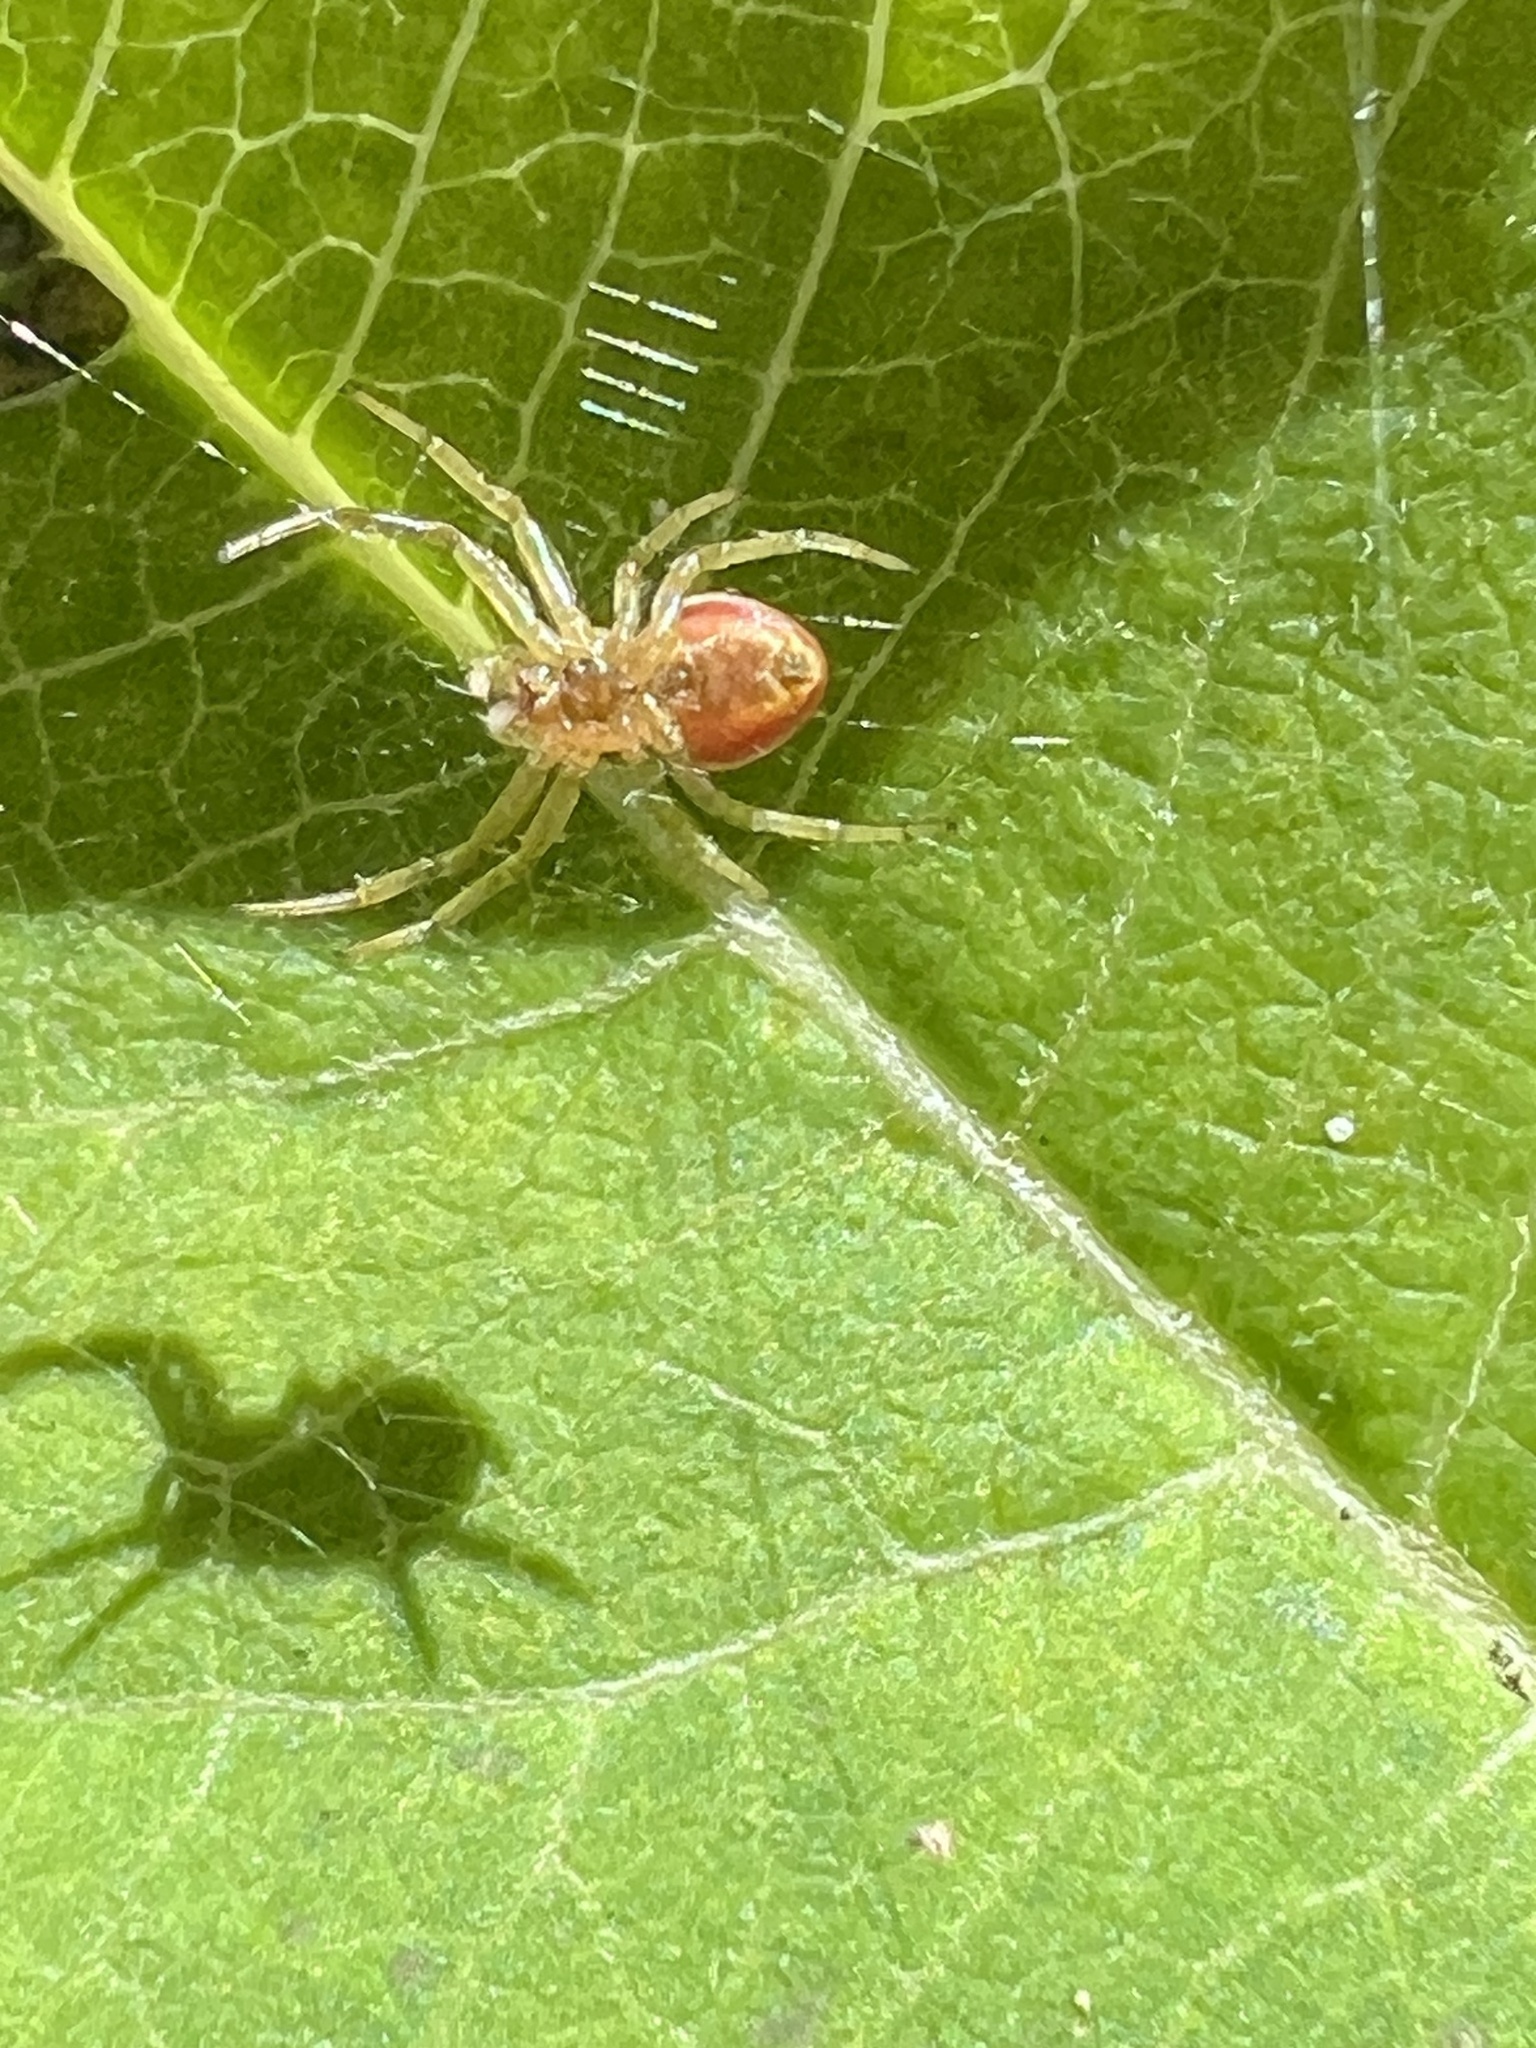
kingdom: Animalia
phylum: Arthropoda
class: Arachnida
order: Araneae
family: Araneidae
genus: Araniella
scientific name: Araniella displicata
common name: Sixspotted orb weaver
